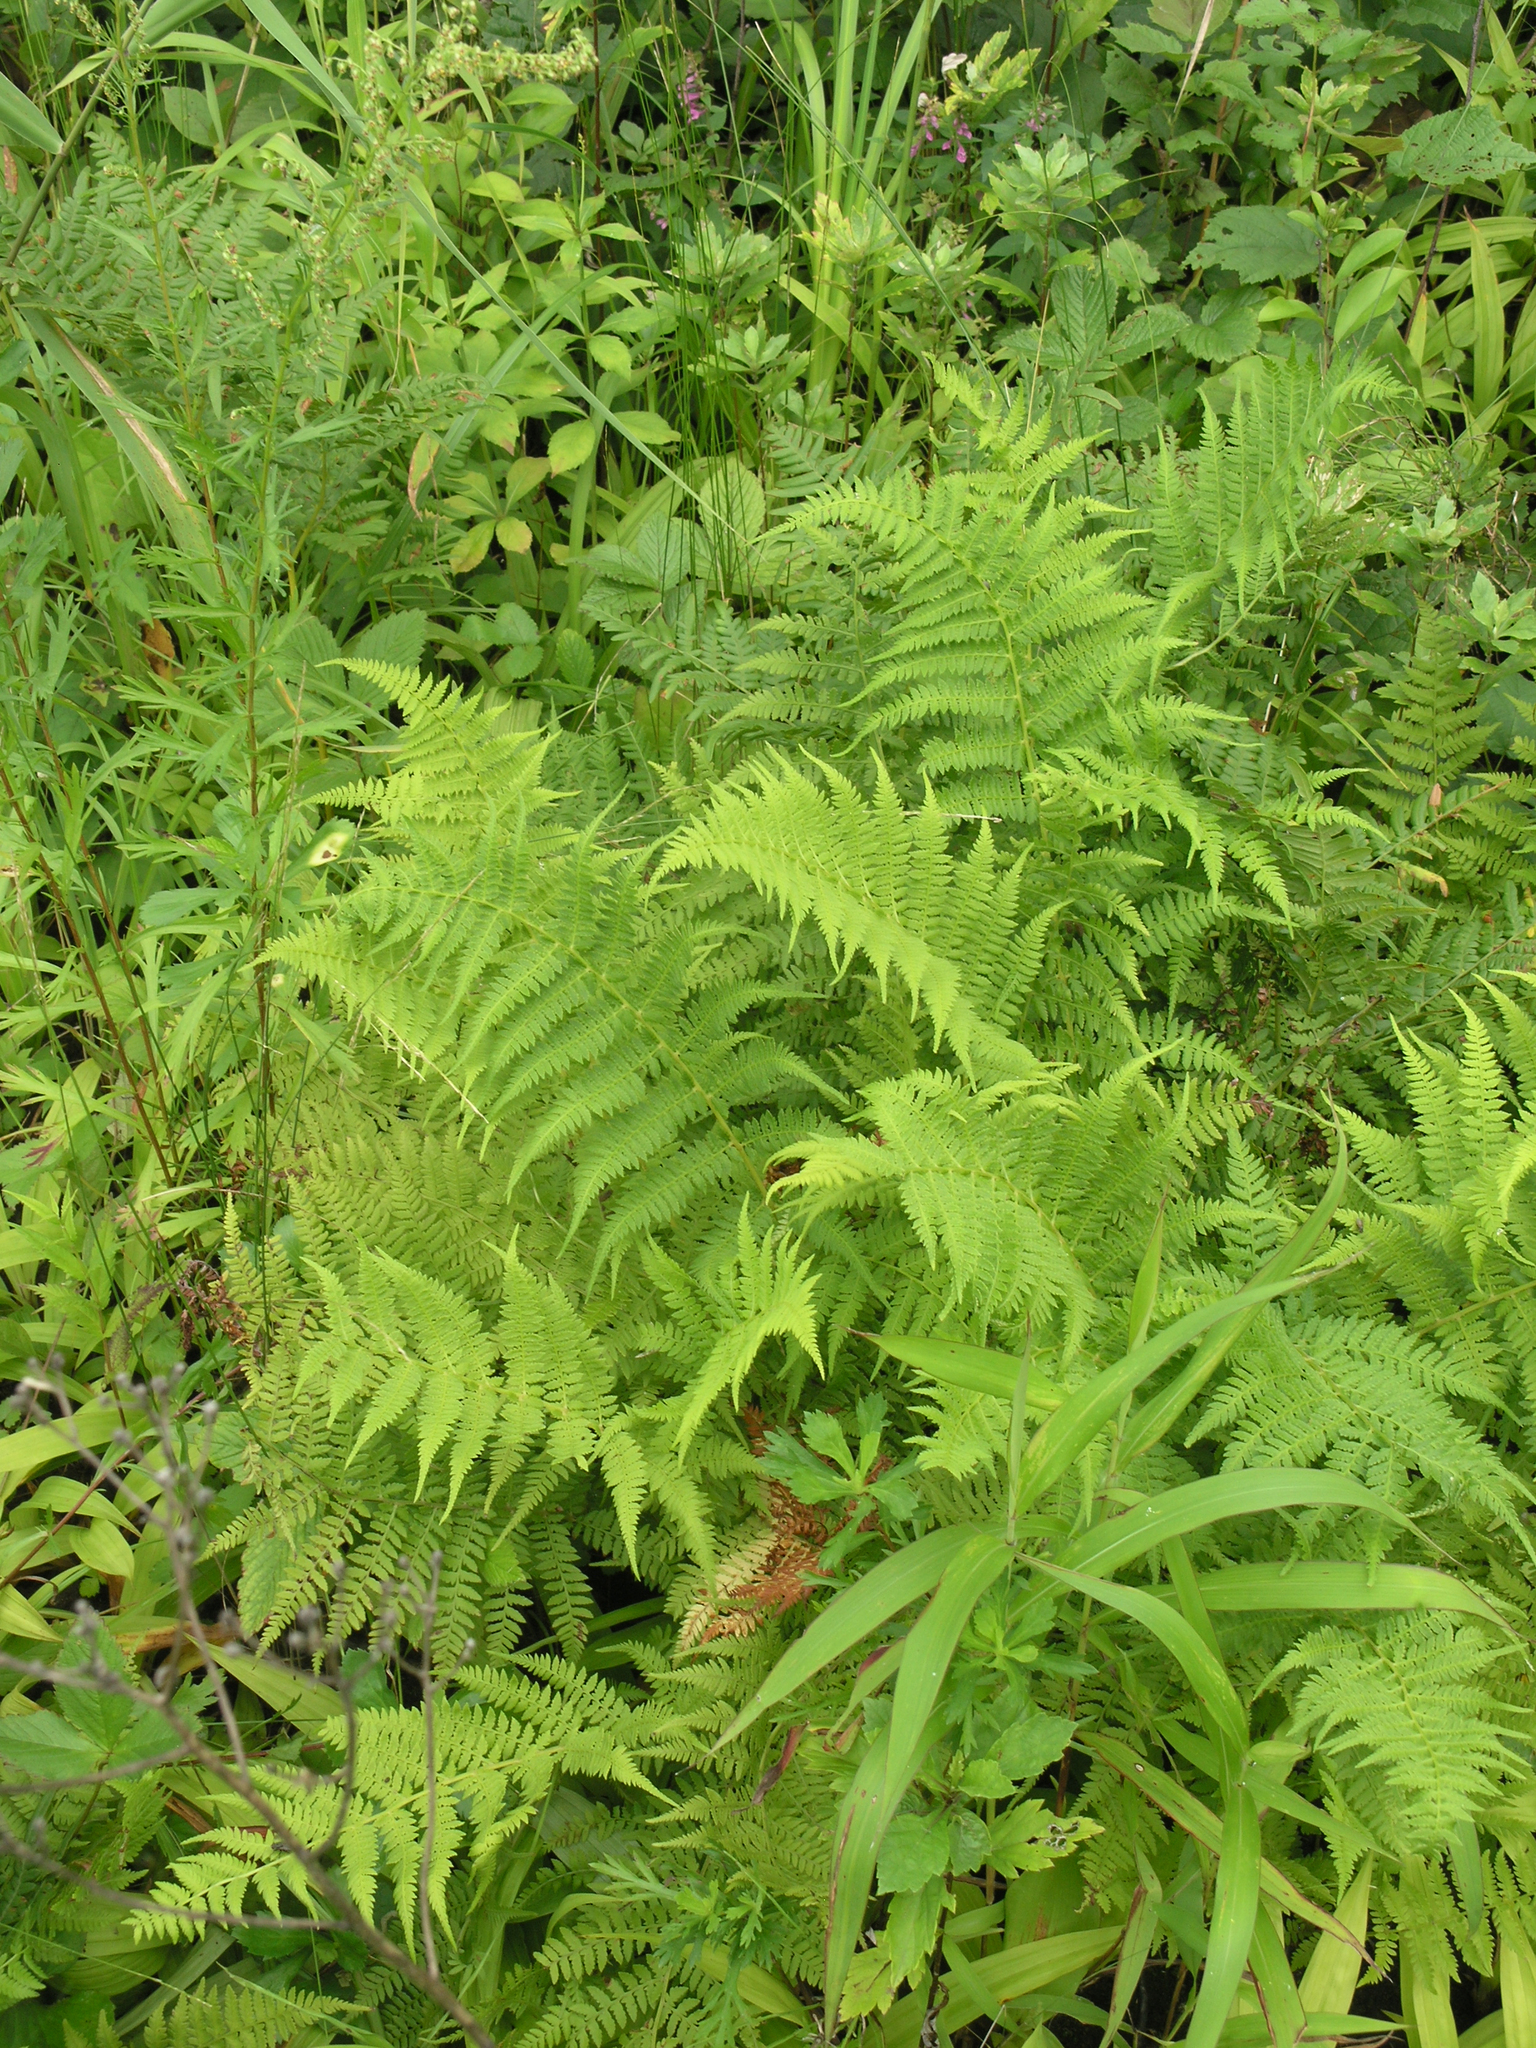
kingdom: Plantae
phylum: Tracheophyta
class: Polypodiopsida
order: Polypodiales
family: Athyriaceae
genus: Athyrium
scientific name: Athyrium yokoscense
